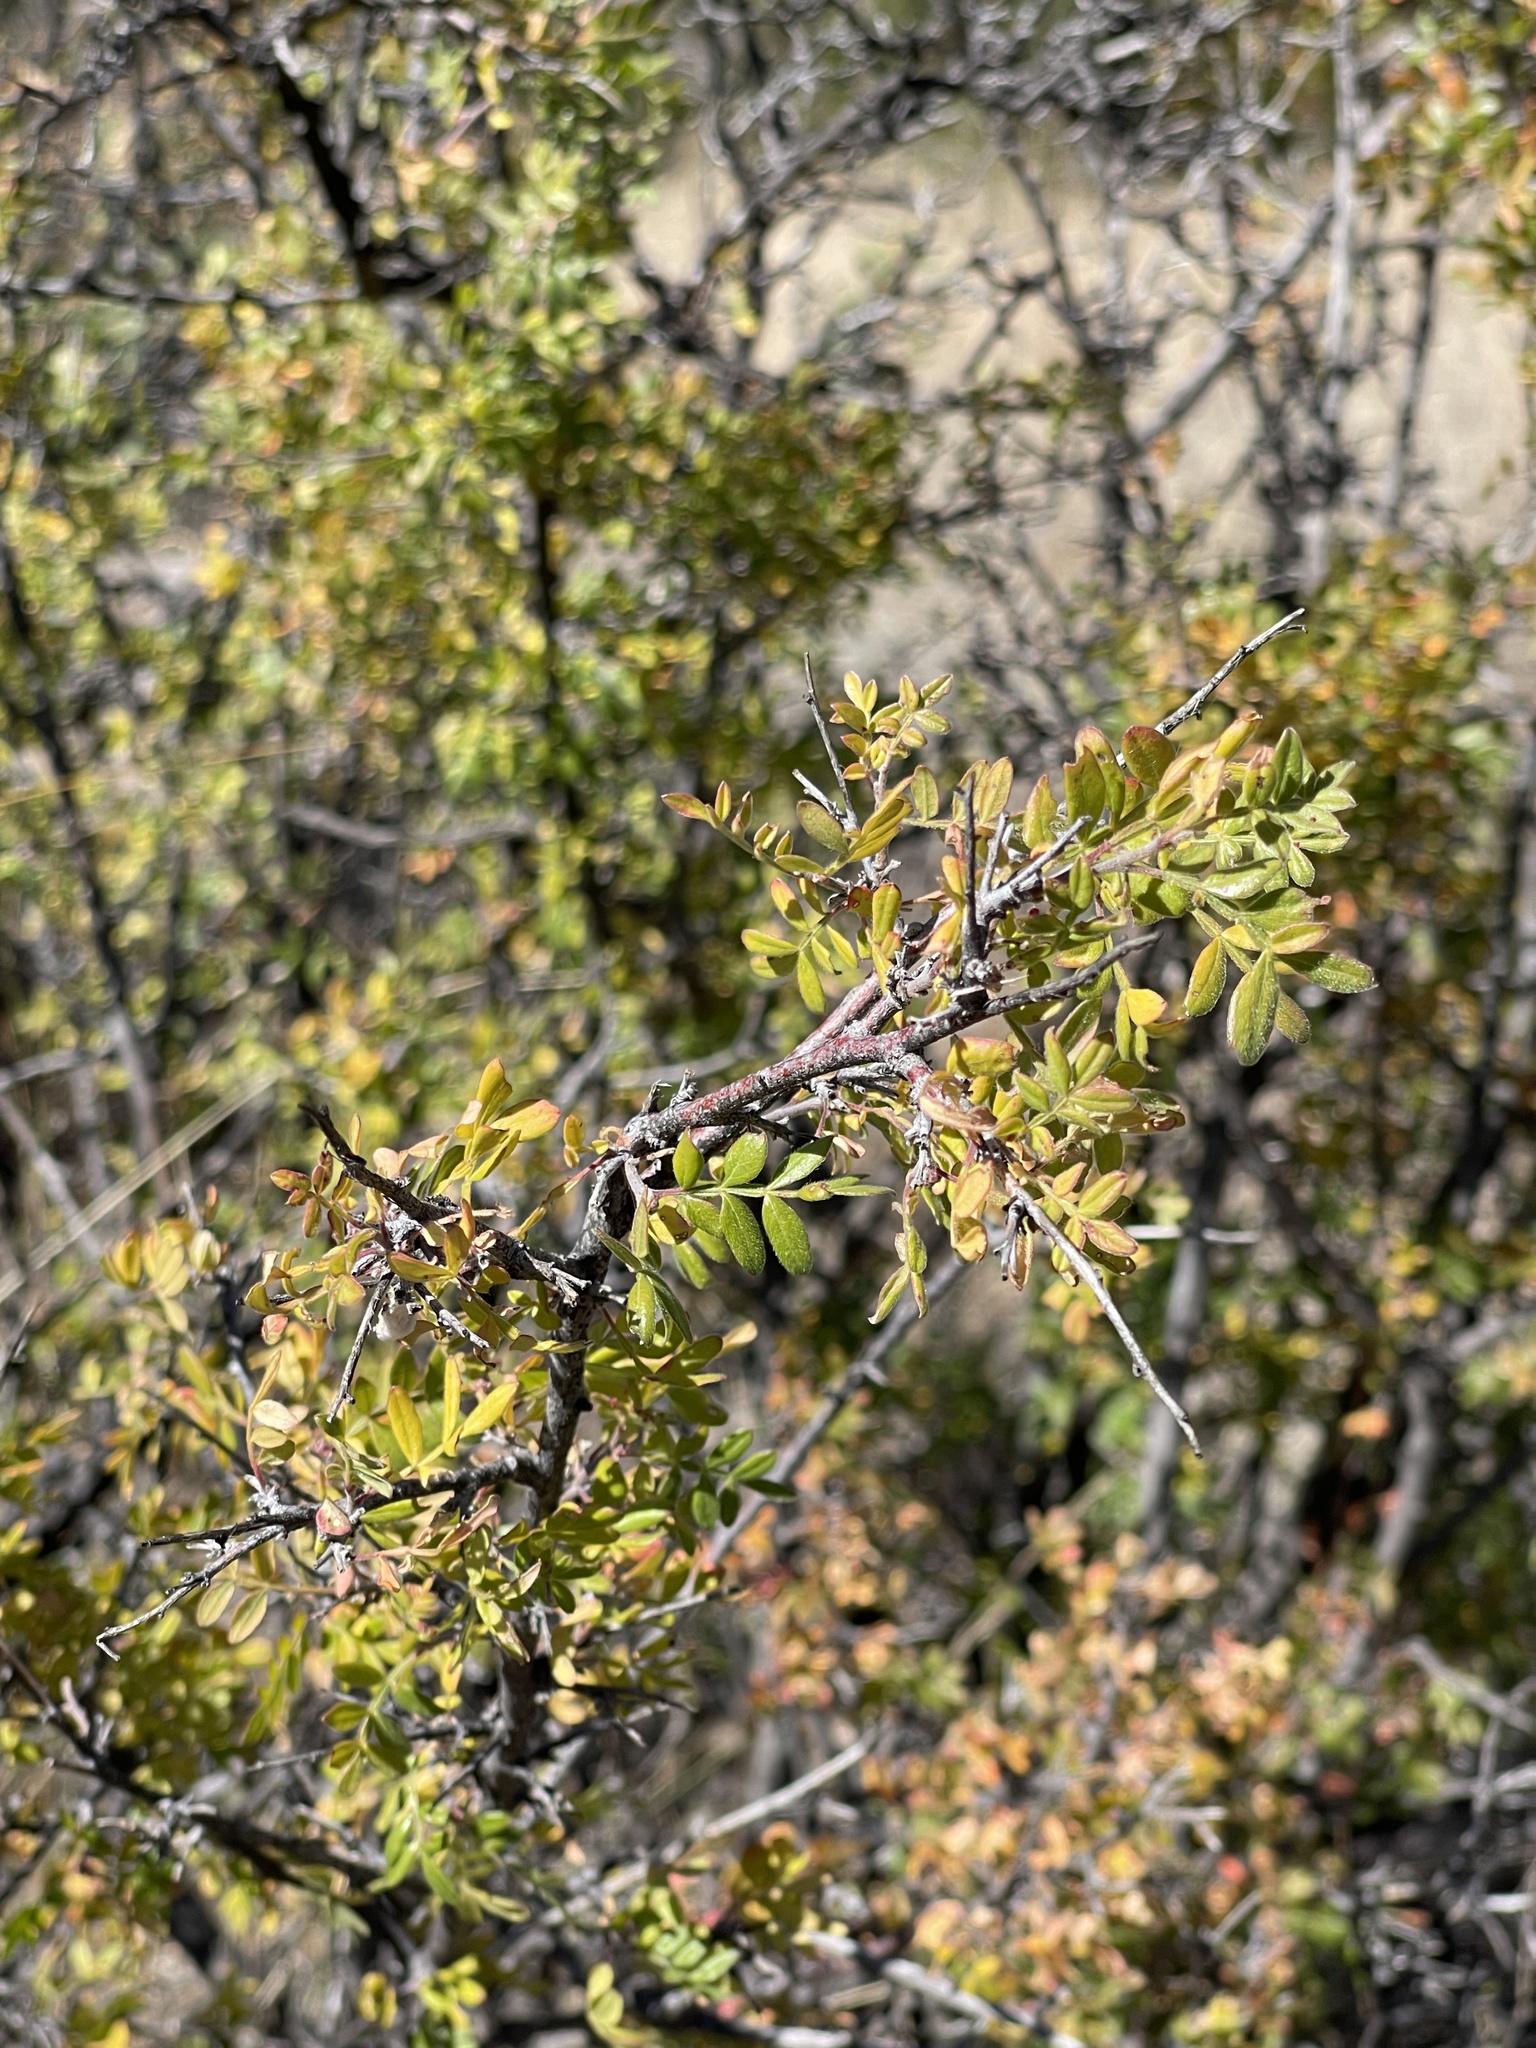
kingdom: Plantae
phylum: Tracheophyta
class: Magnoliopsida
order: Sapindales
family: Anacardiaceae
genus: Rhus
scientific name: Rhus microphylla
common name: Desert sumac
